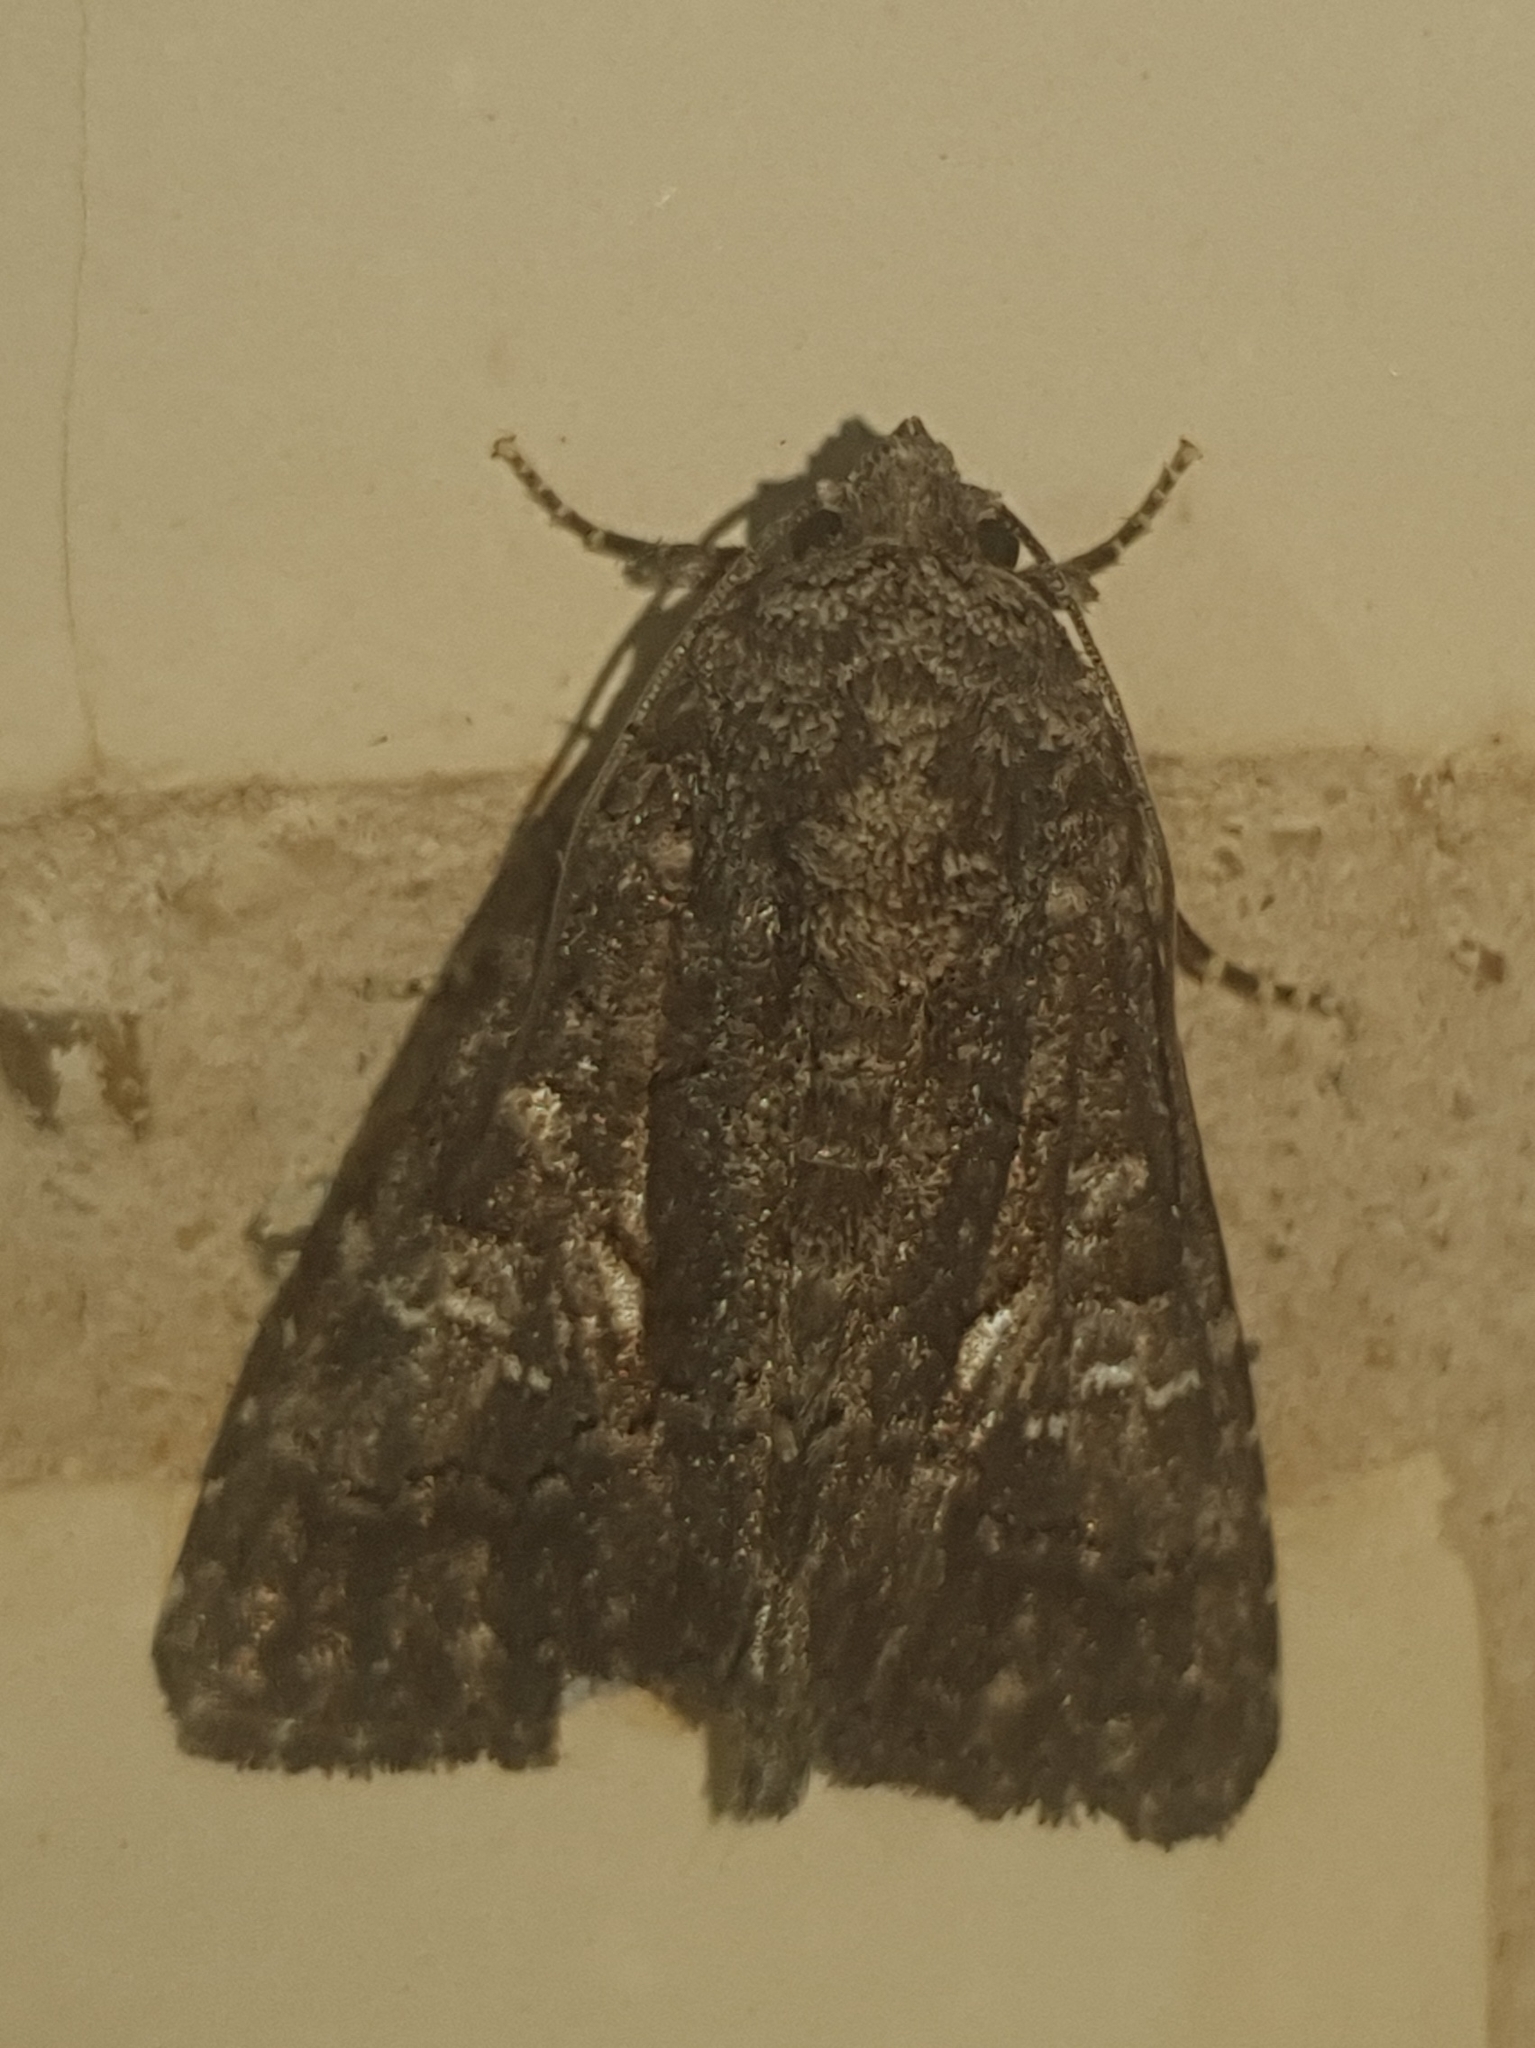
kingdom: Animalia
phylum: Arthropoda
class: Insecta
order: Lepidoptera
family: Noctuidae
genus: Aedia
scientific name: Aedia leucomelas
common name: Sorcerer
